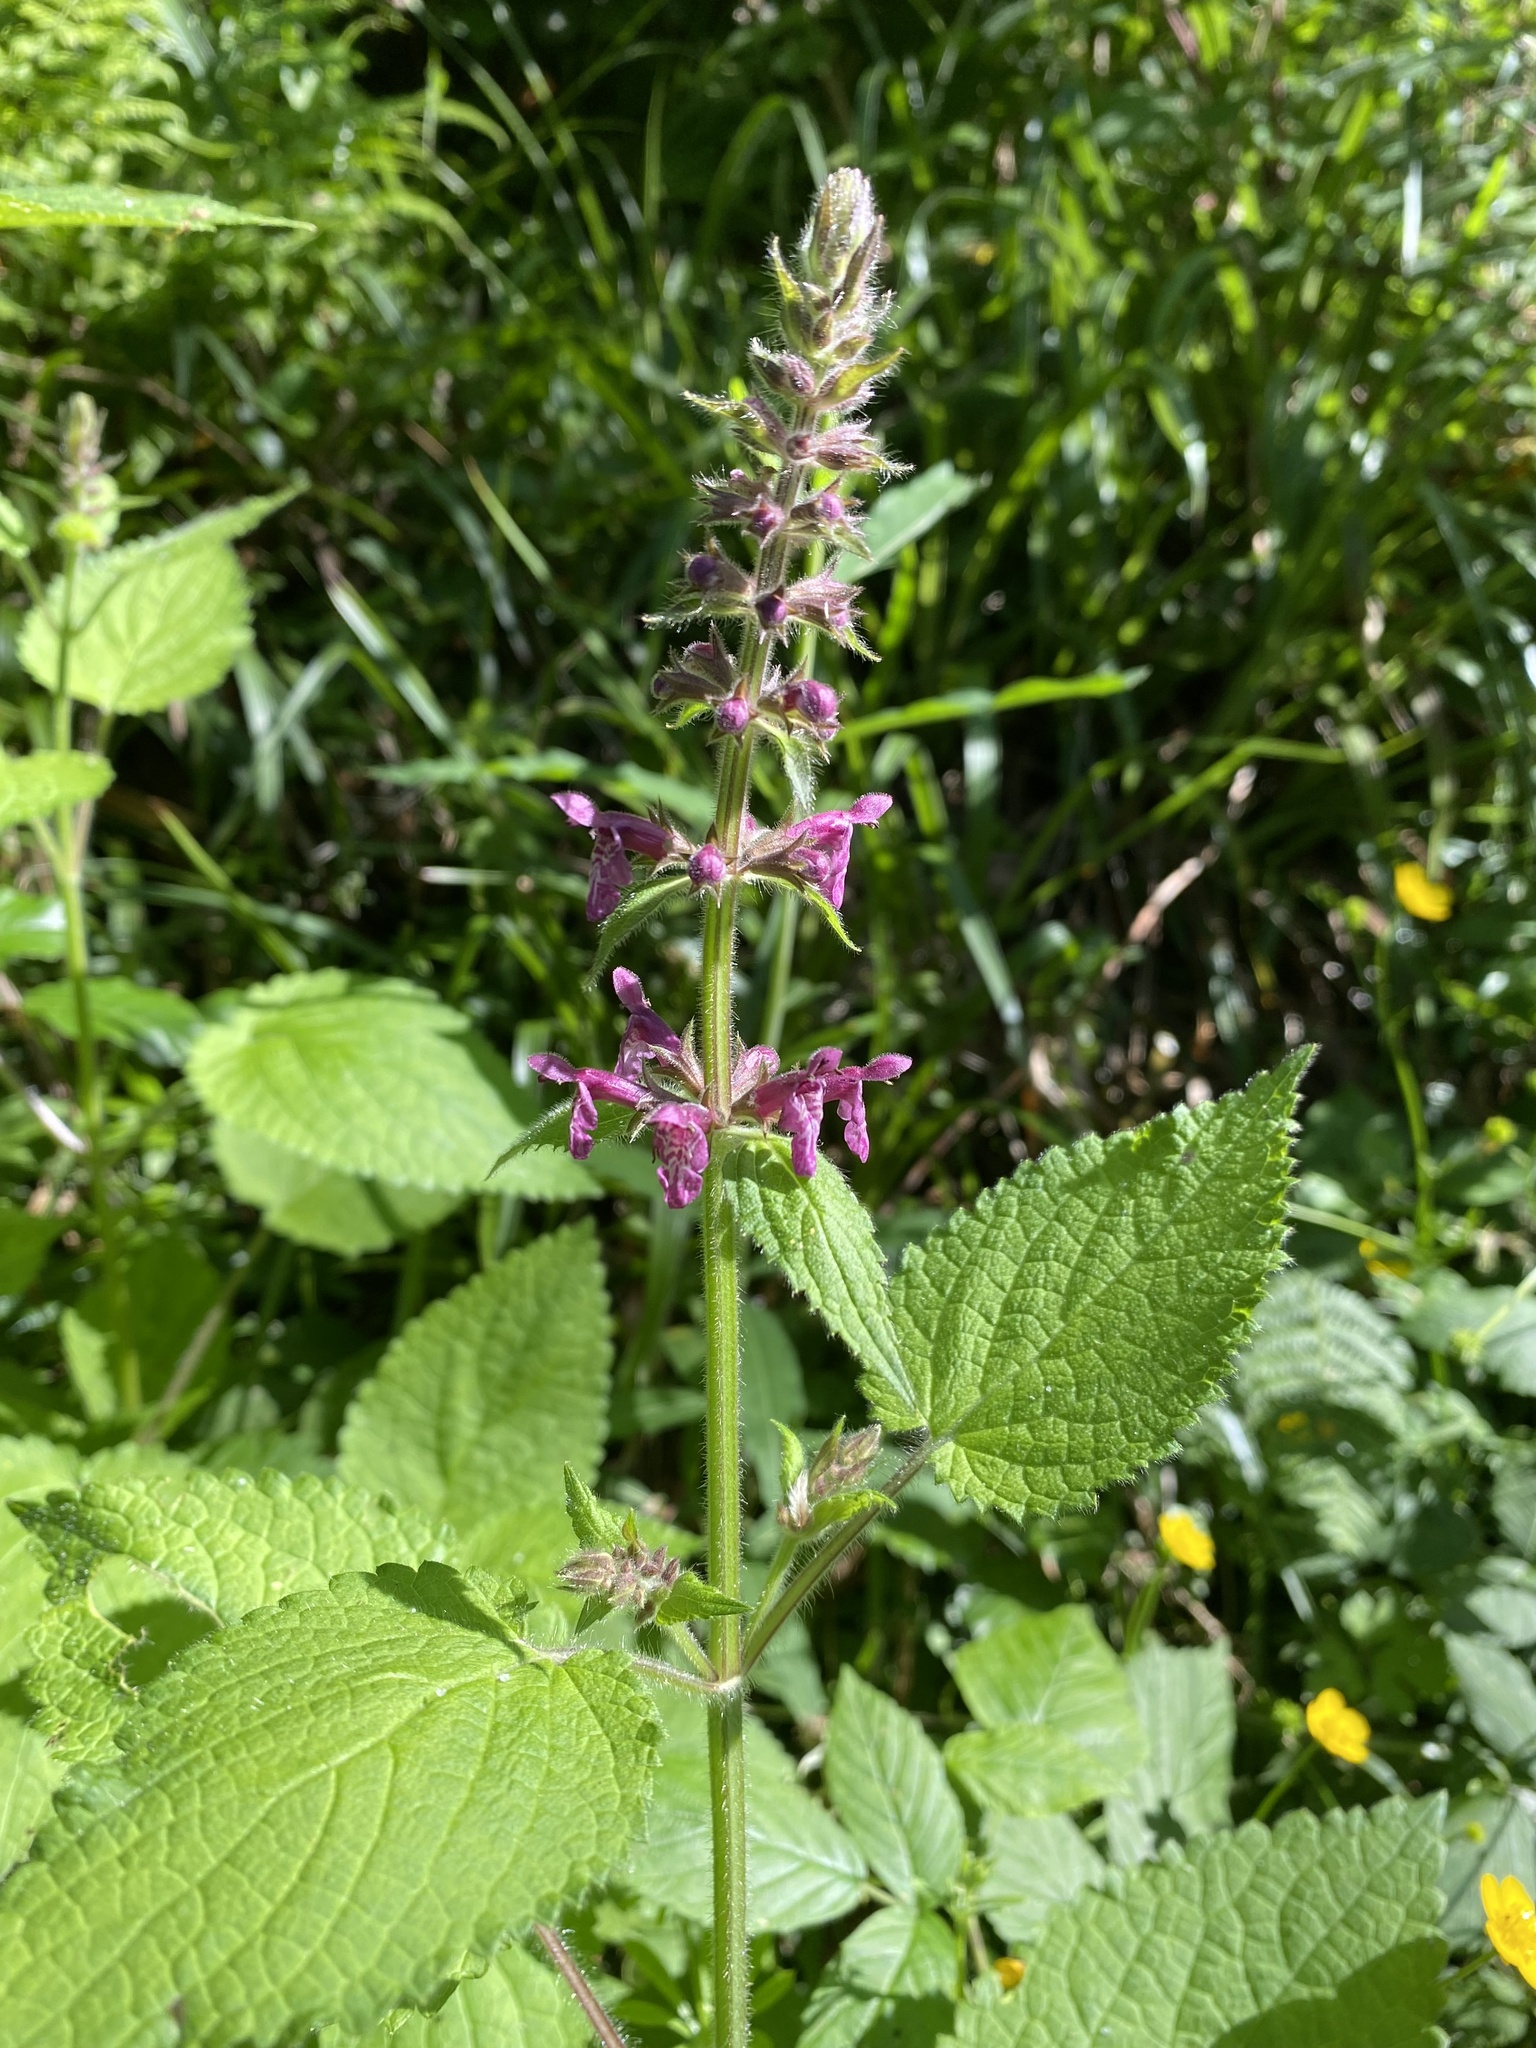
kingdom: Plantae
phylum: Tracheophyta
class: Magnoliopsida
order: Lamiales
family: Lamiaceae
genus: Stachys
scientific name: Stachys sylvatica
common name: Hedge woundwort
